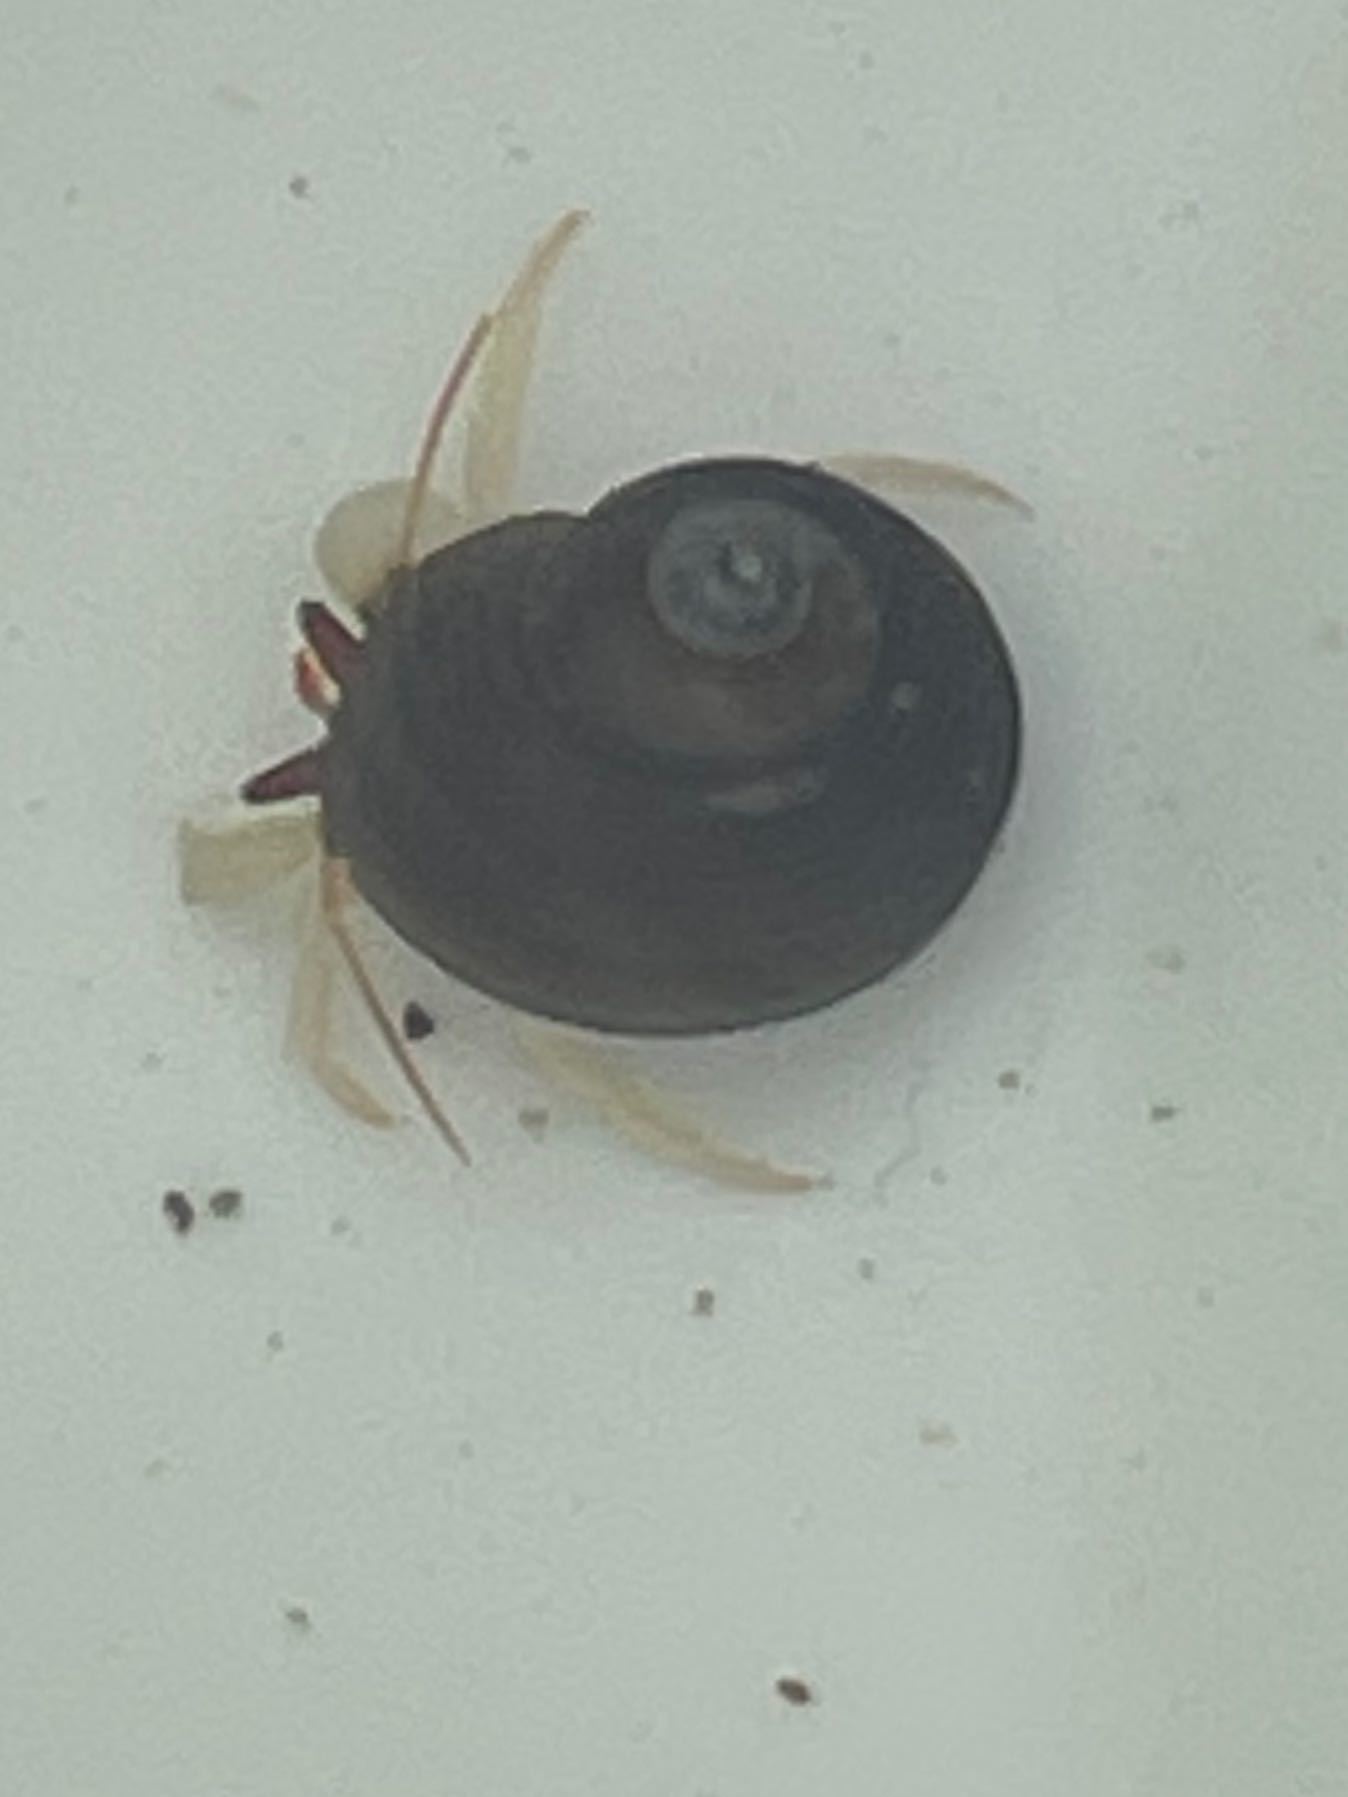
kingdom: Animalia
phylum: Arthropoda
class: Malacostraca
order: Decapoda
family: Paguridae
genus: Pagurus
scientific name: Pagurus granosimanus
